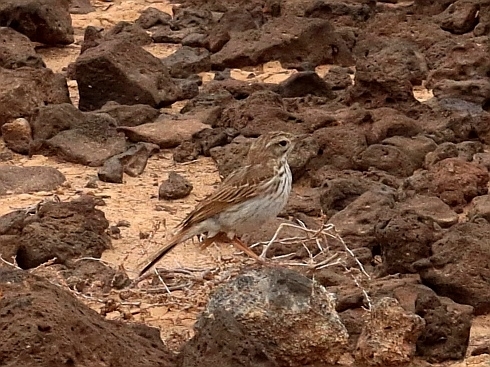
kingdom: Animalia
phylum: Chordata
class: Aves
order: Passeriformes
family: Motacillidae
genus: Anthus
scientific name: Anthus berthelotii
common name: Berthelot's pipit
